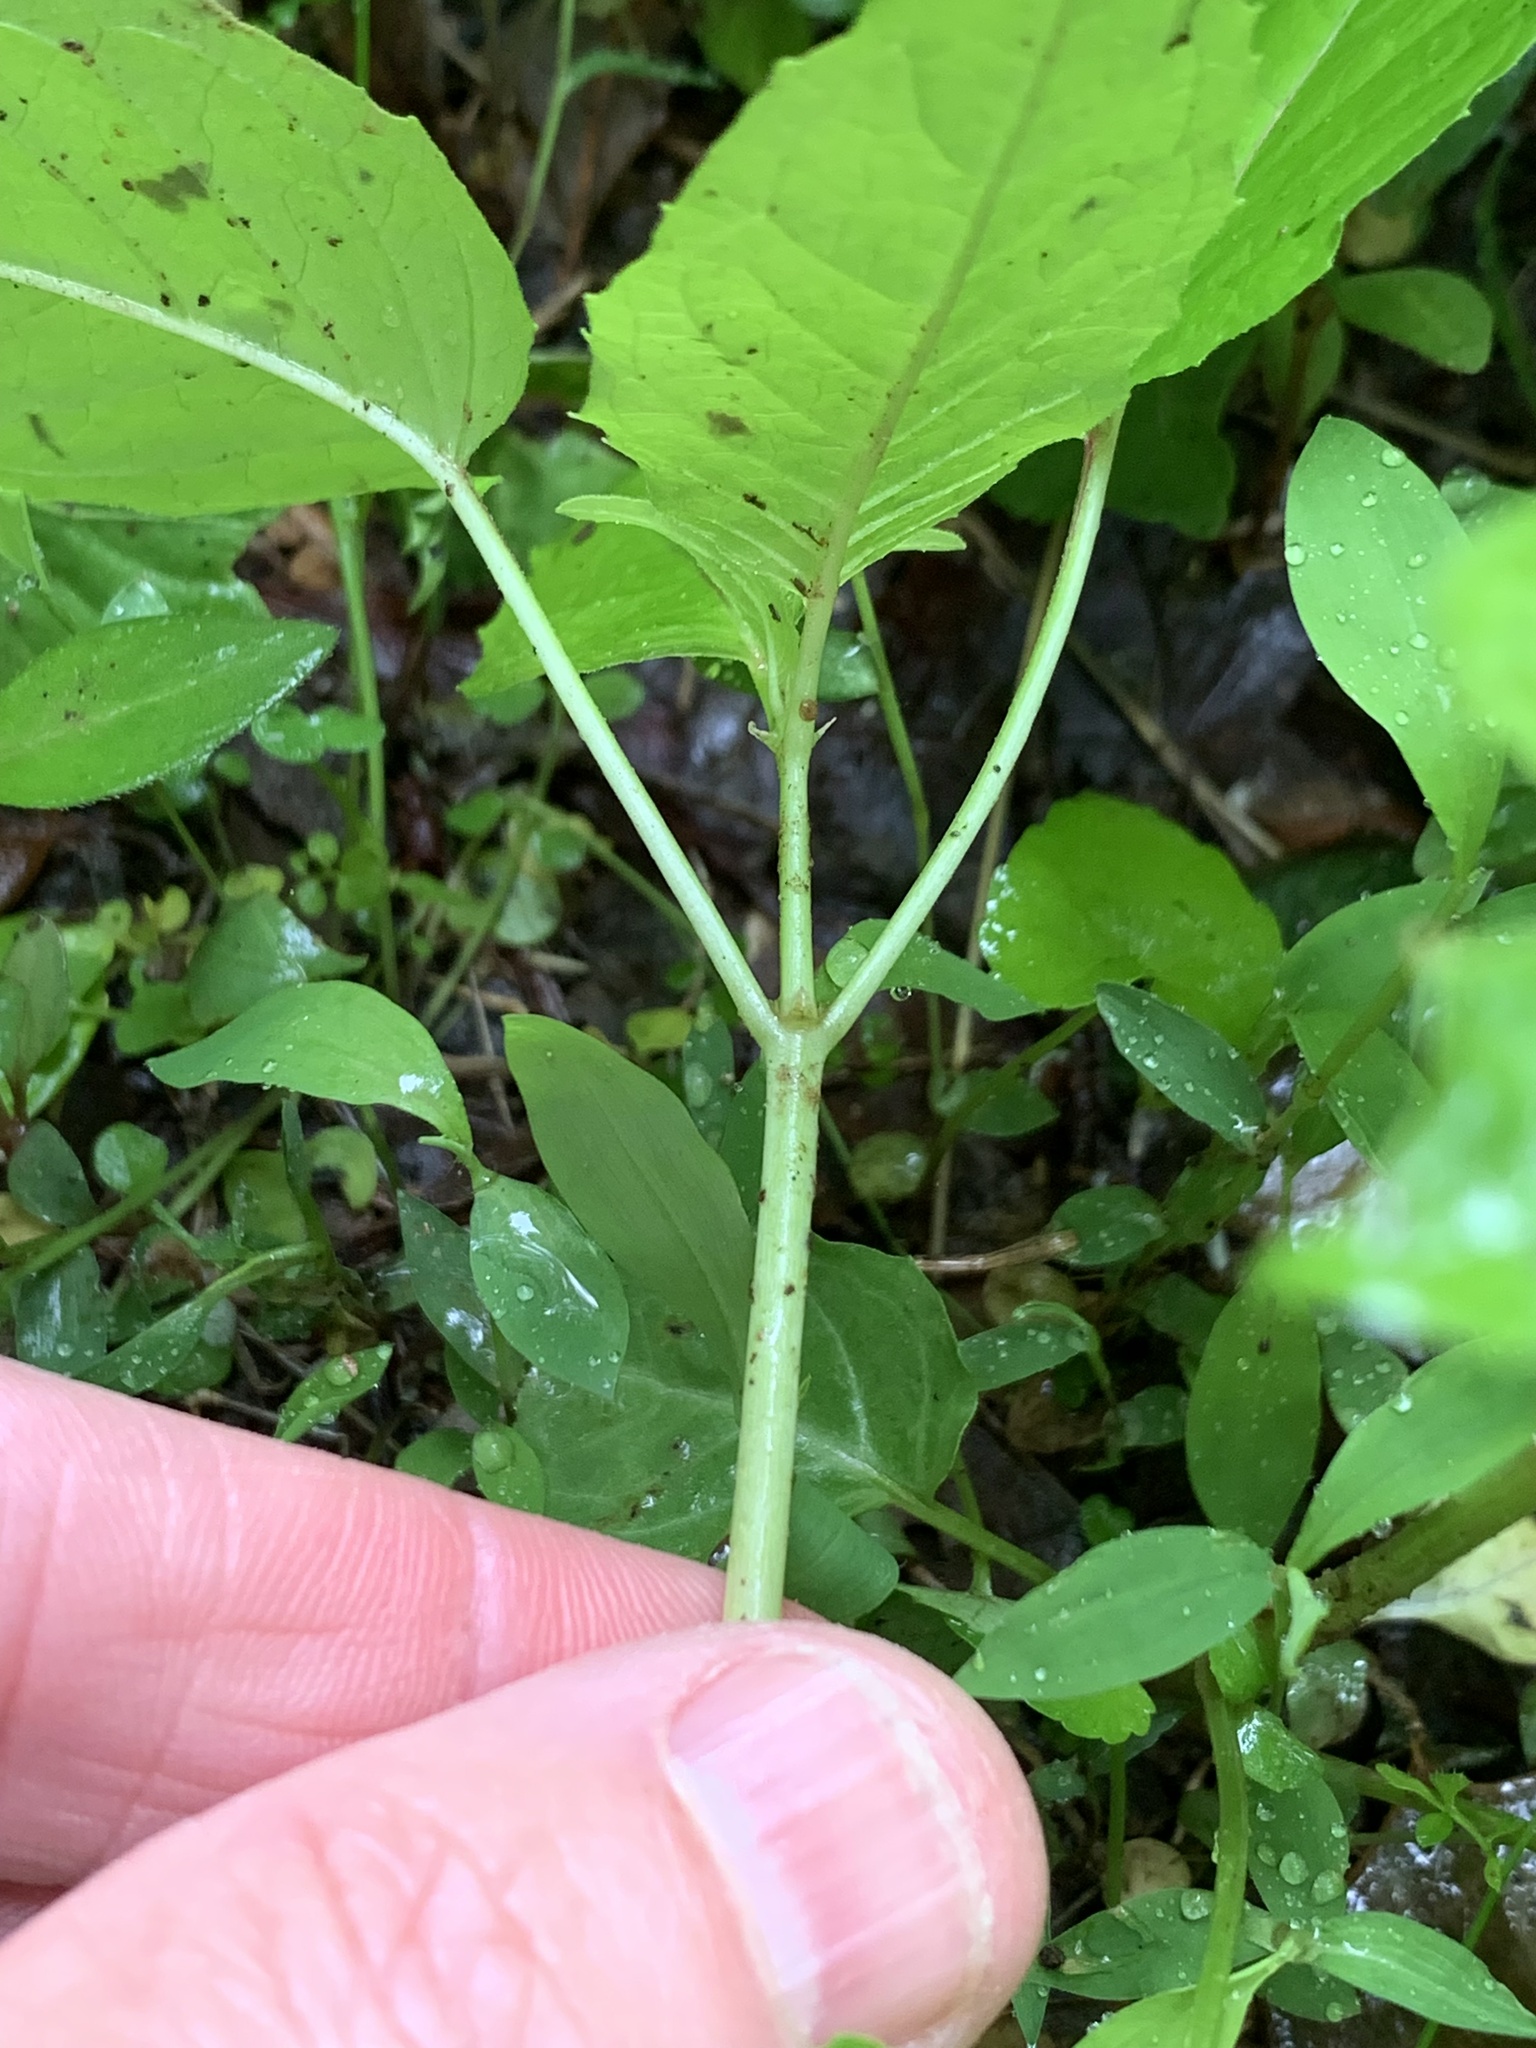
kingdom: Plantae
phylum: Tracheophyta
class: Magnoliopsida
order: Myrtales
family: Onagraceae
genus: Circaea
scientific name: Circaea canadensis
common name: Broad-leaved enchanter's nightshade
